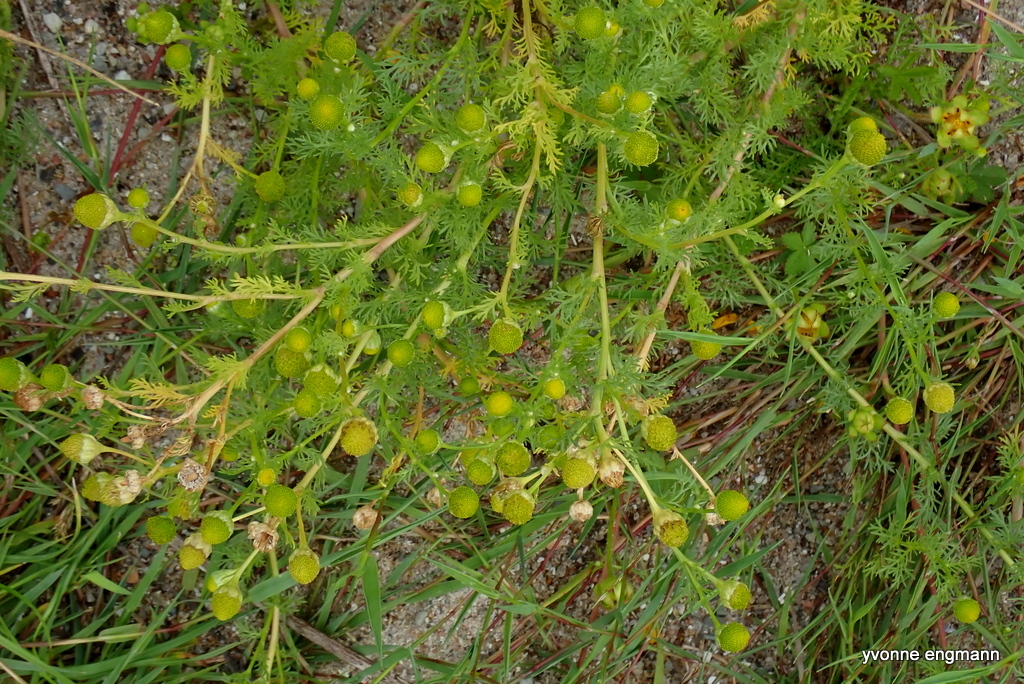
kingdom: Plantae
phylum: Tracheophyta
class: Magnoliopsida
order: Asterales
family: Asteraceae
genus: Matricaria
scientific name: Matricaria discoidea
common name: Disc mayweed
